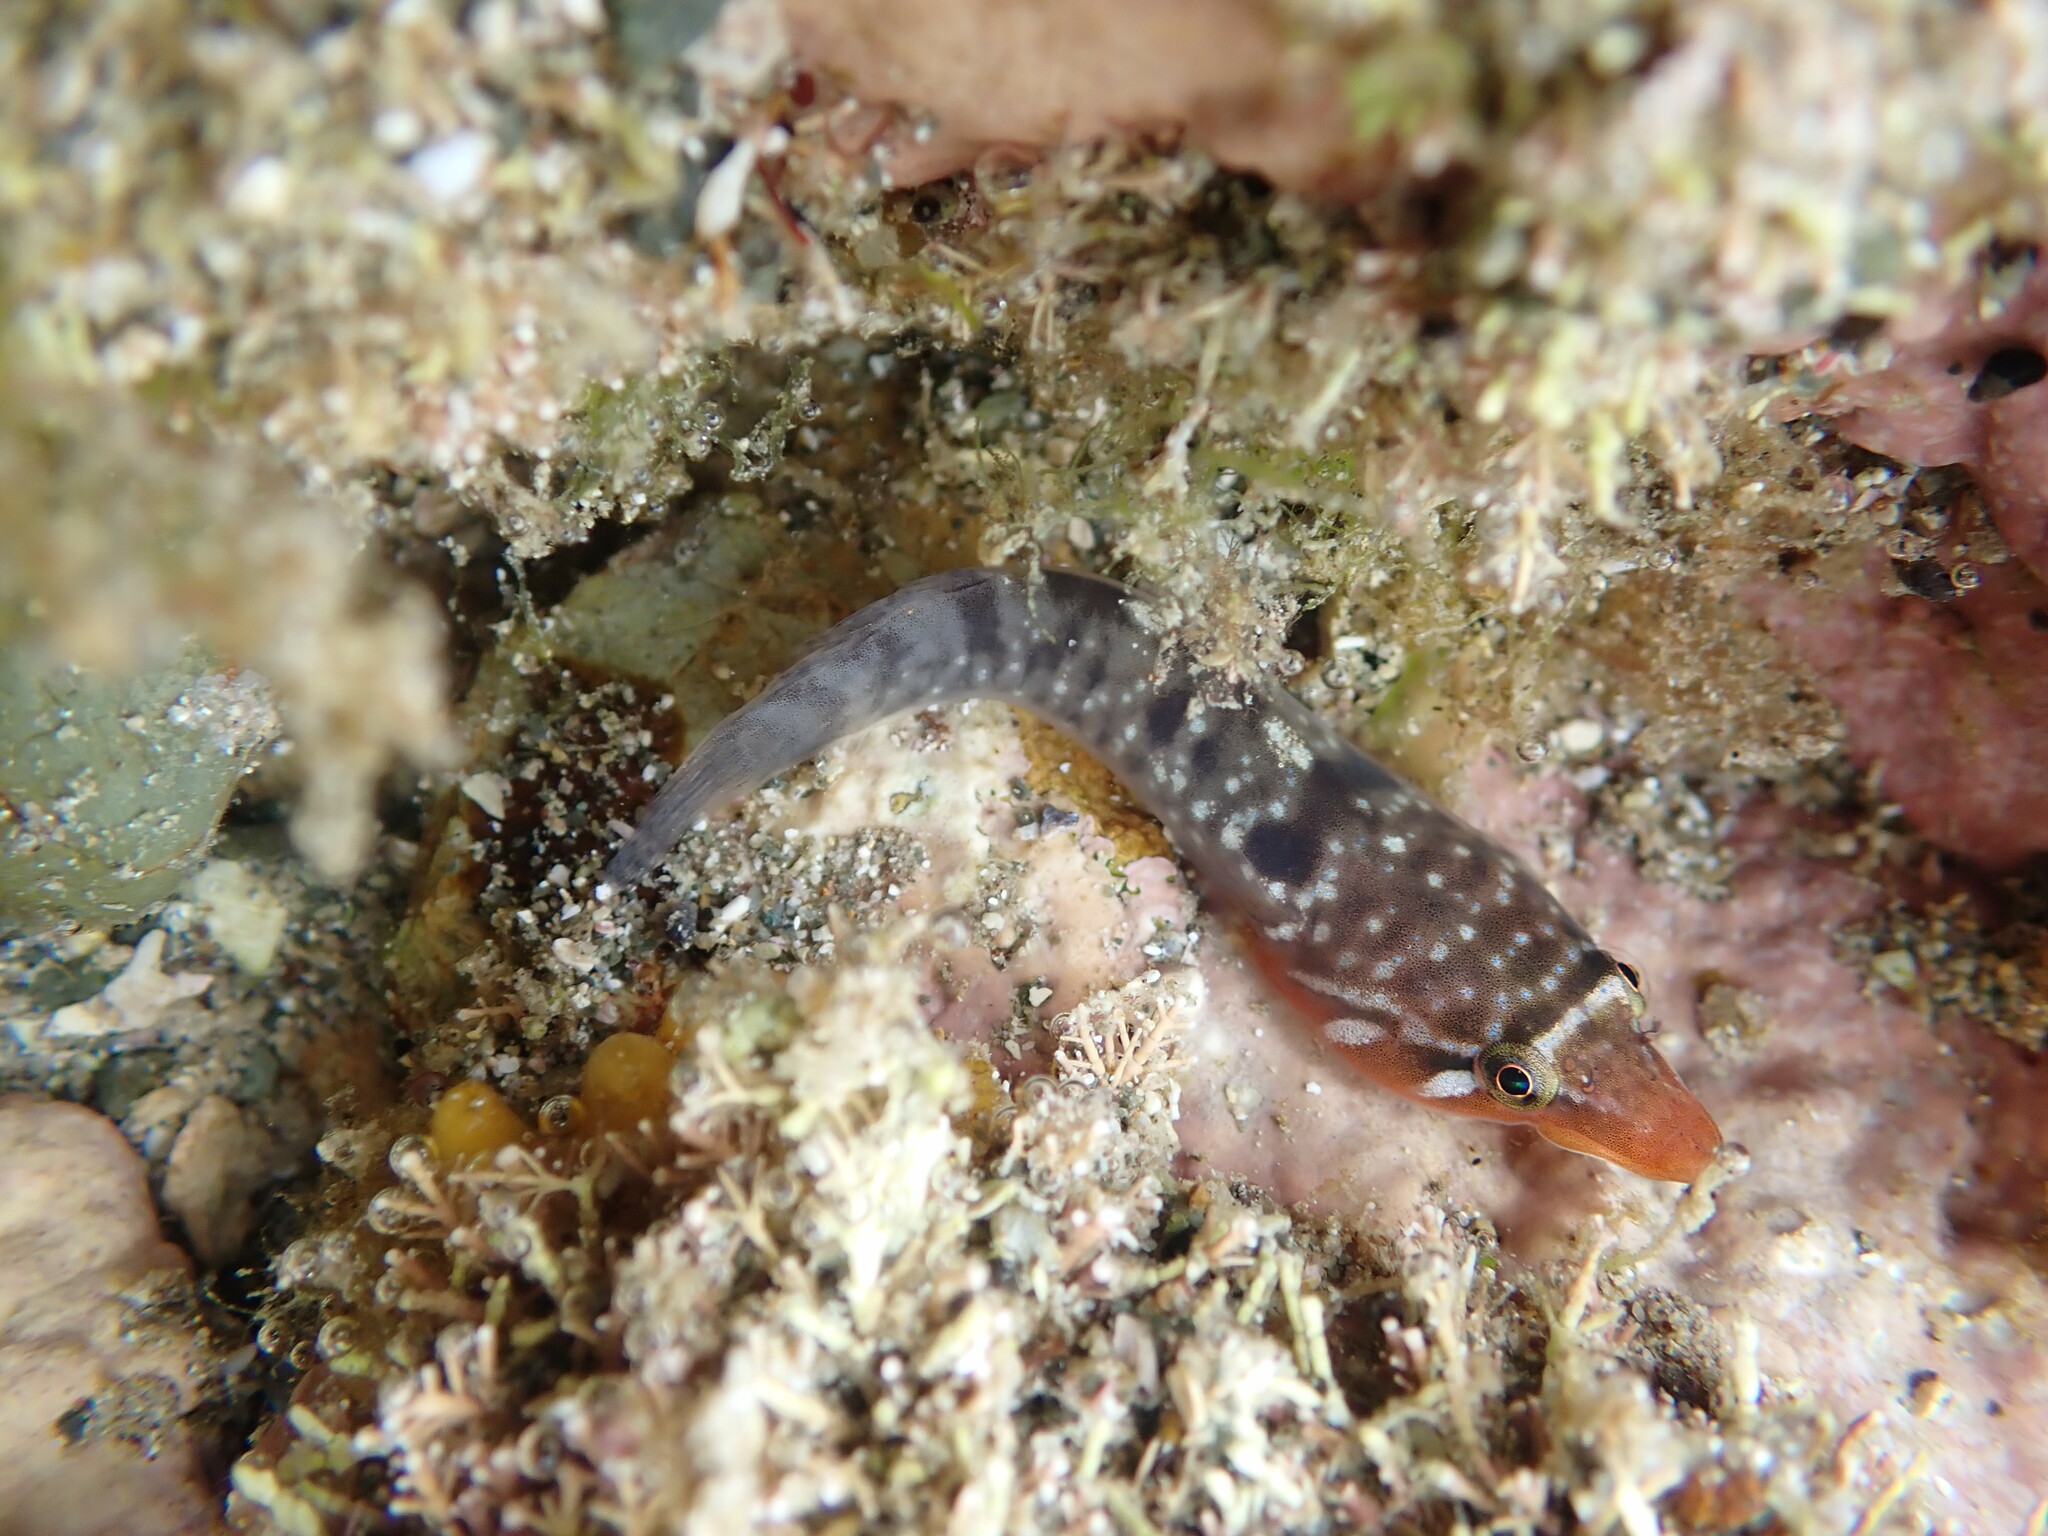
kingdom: Animalia
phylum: Chordata
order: Gobiesociformes
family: Gobiesocidae
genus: Dellichthys
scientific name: Dellichthys morelandi
